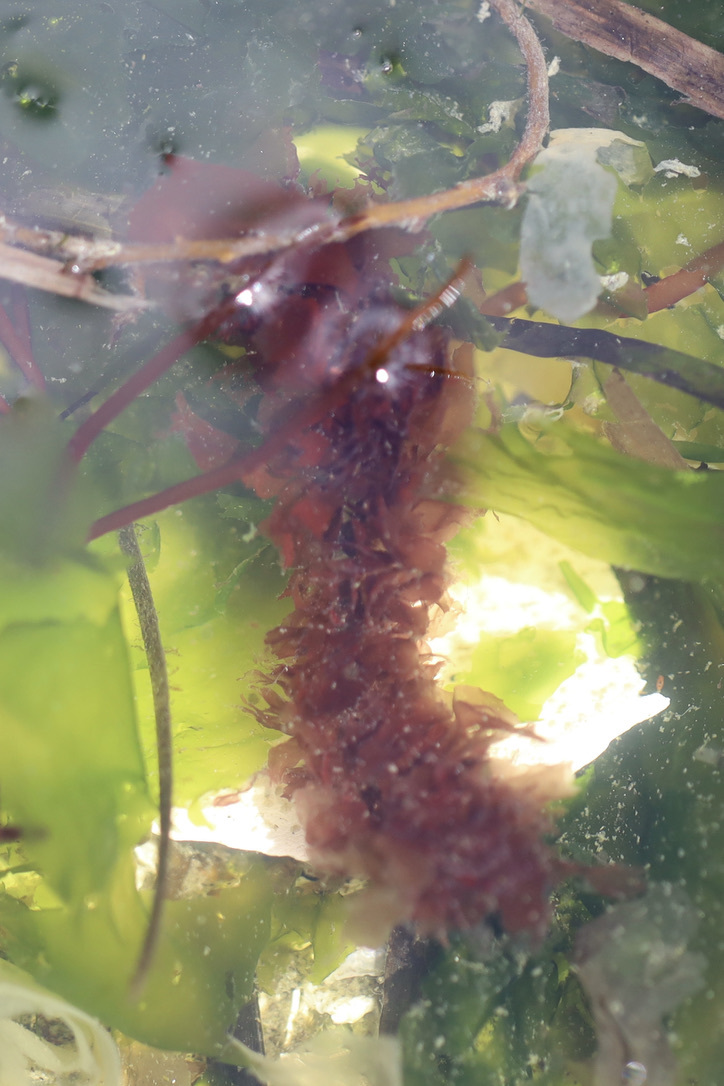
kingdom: Plantae
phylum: Rhodophyta
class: Compsopogonophyceae
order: Erythropeltidales
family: Erythrotrichiaceae
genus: Smithora
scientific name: Smithora naiadum
